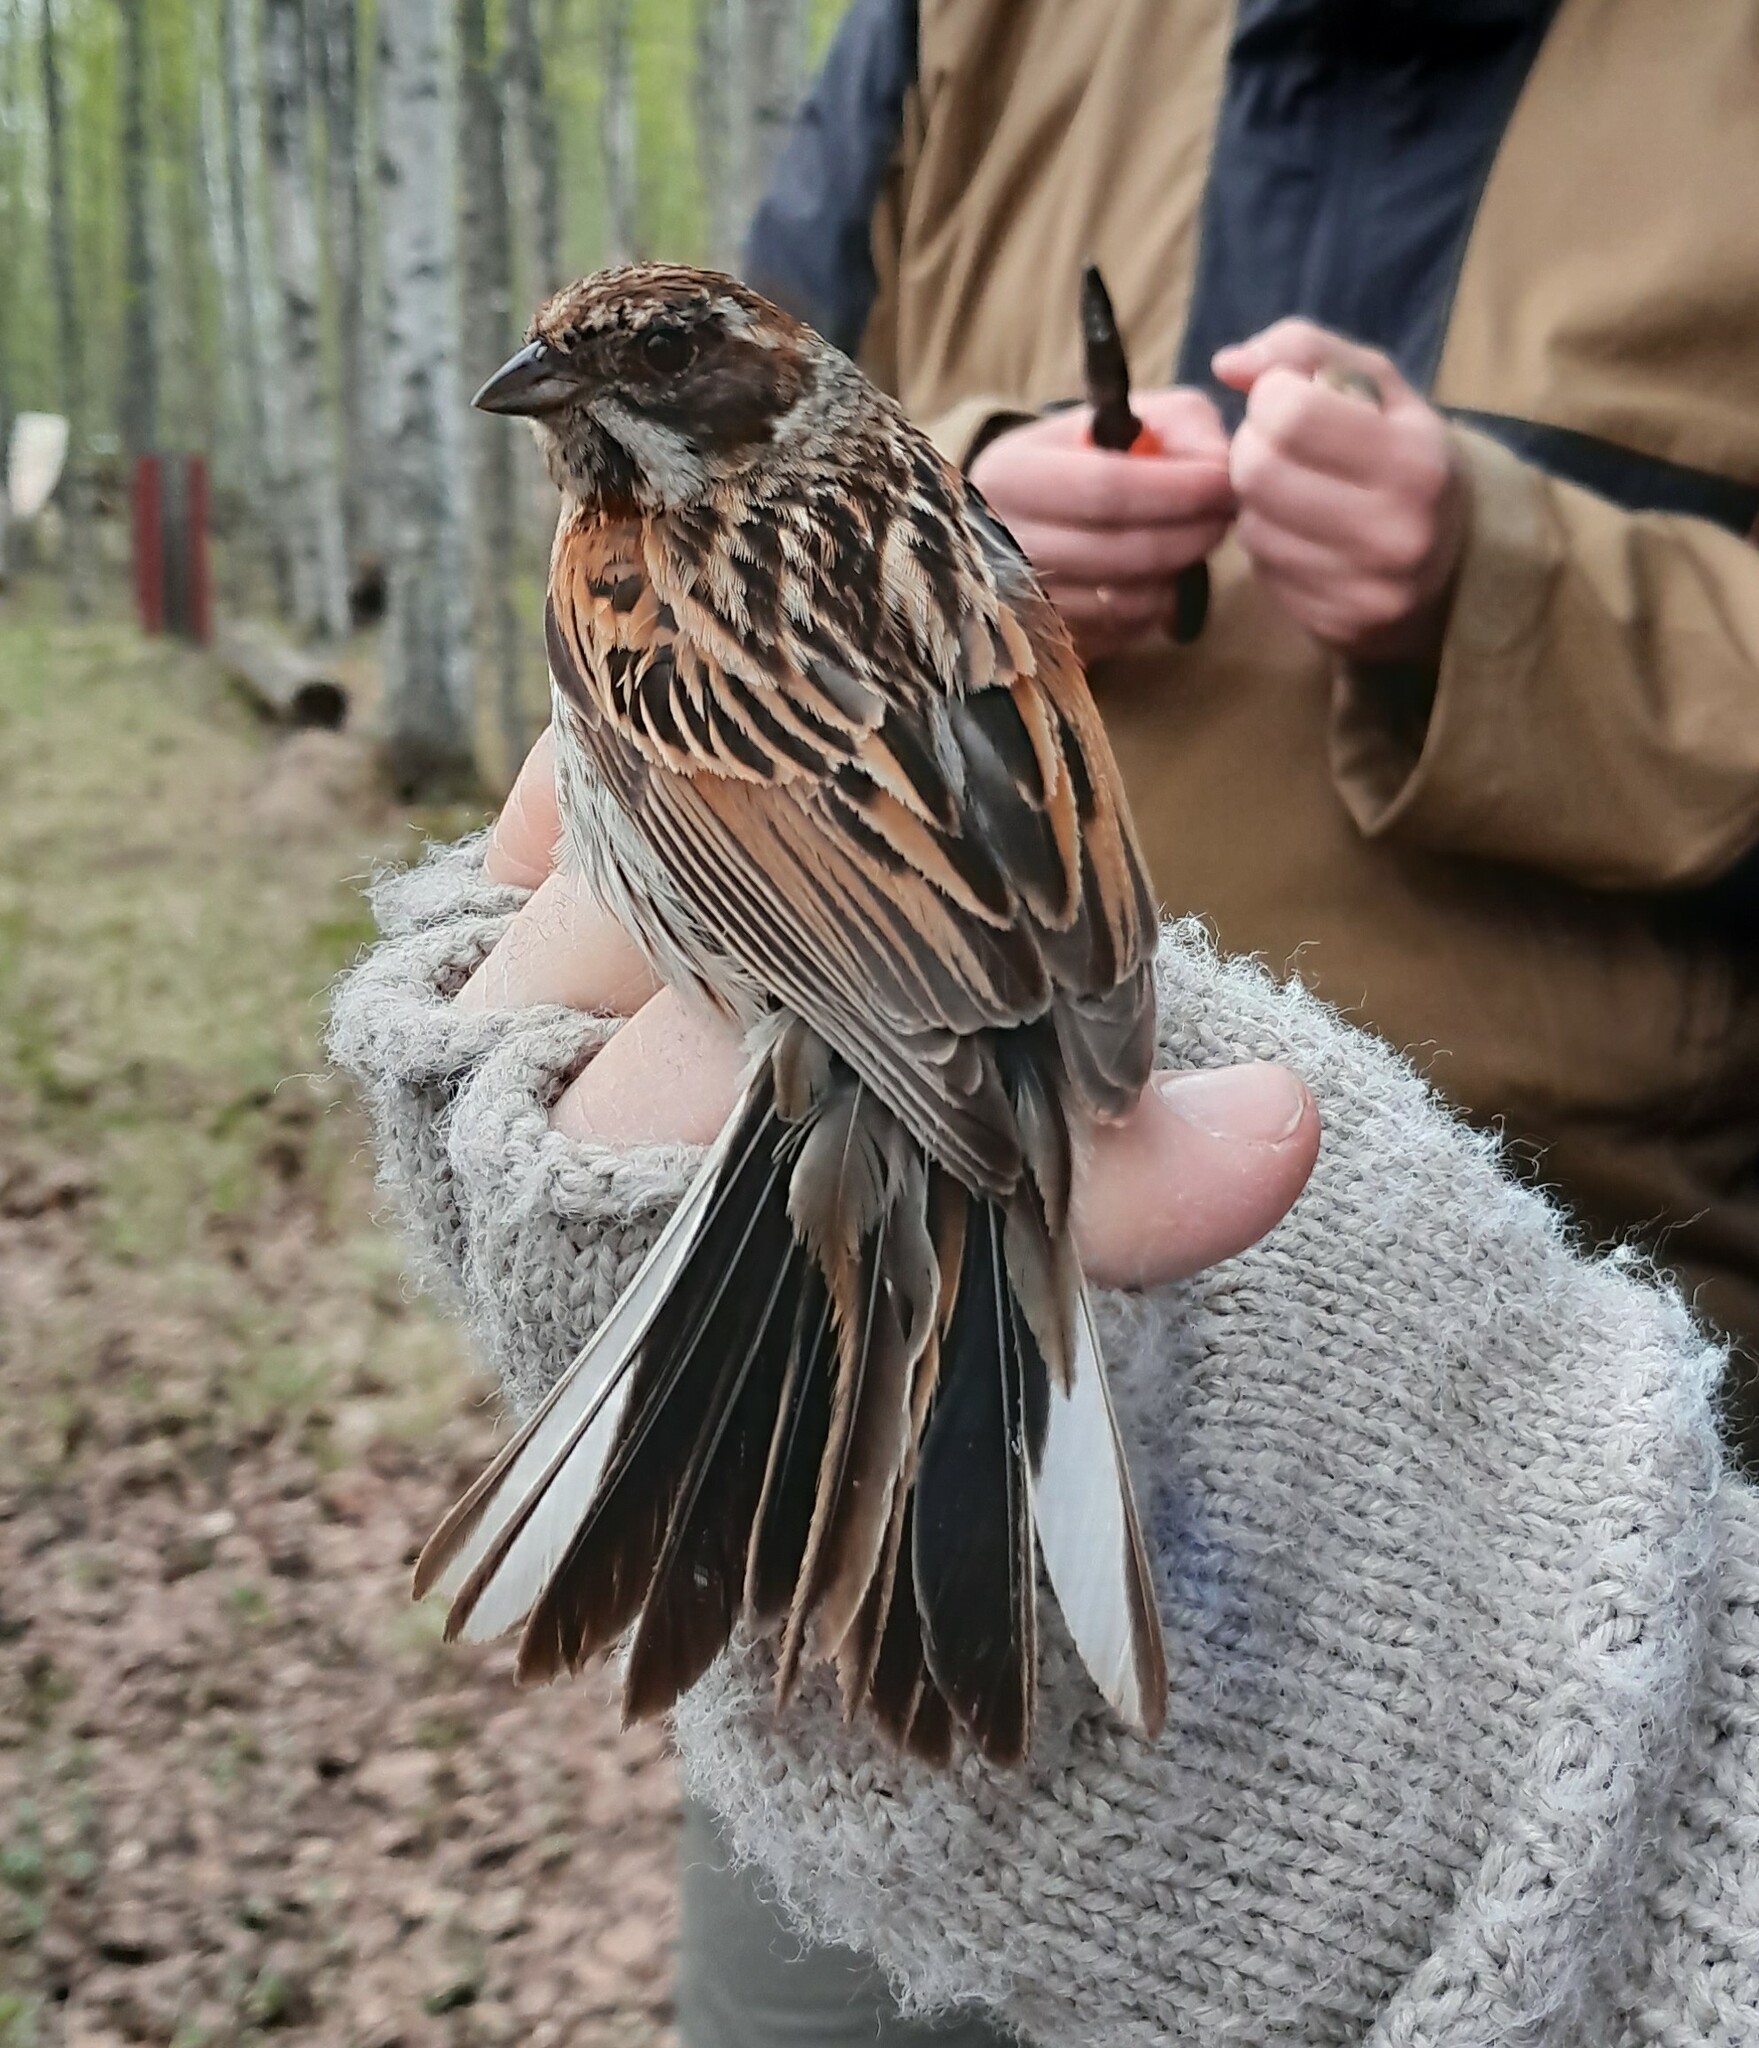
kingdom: Animalia
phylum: Chordata
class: Aves
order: Passeriformes
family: Emberizidae
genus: Emberiza
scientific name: Emberiza schoeniclus
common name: Reed bunting
